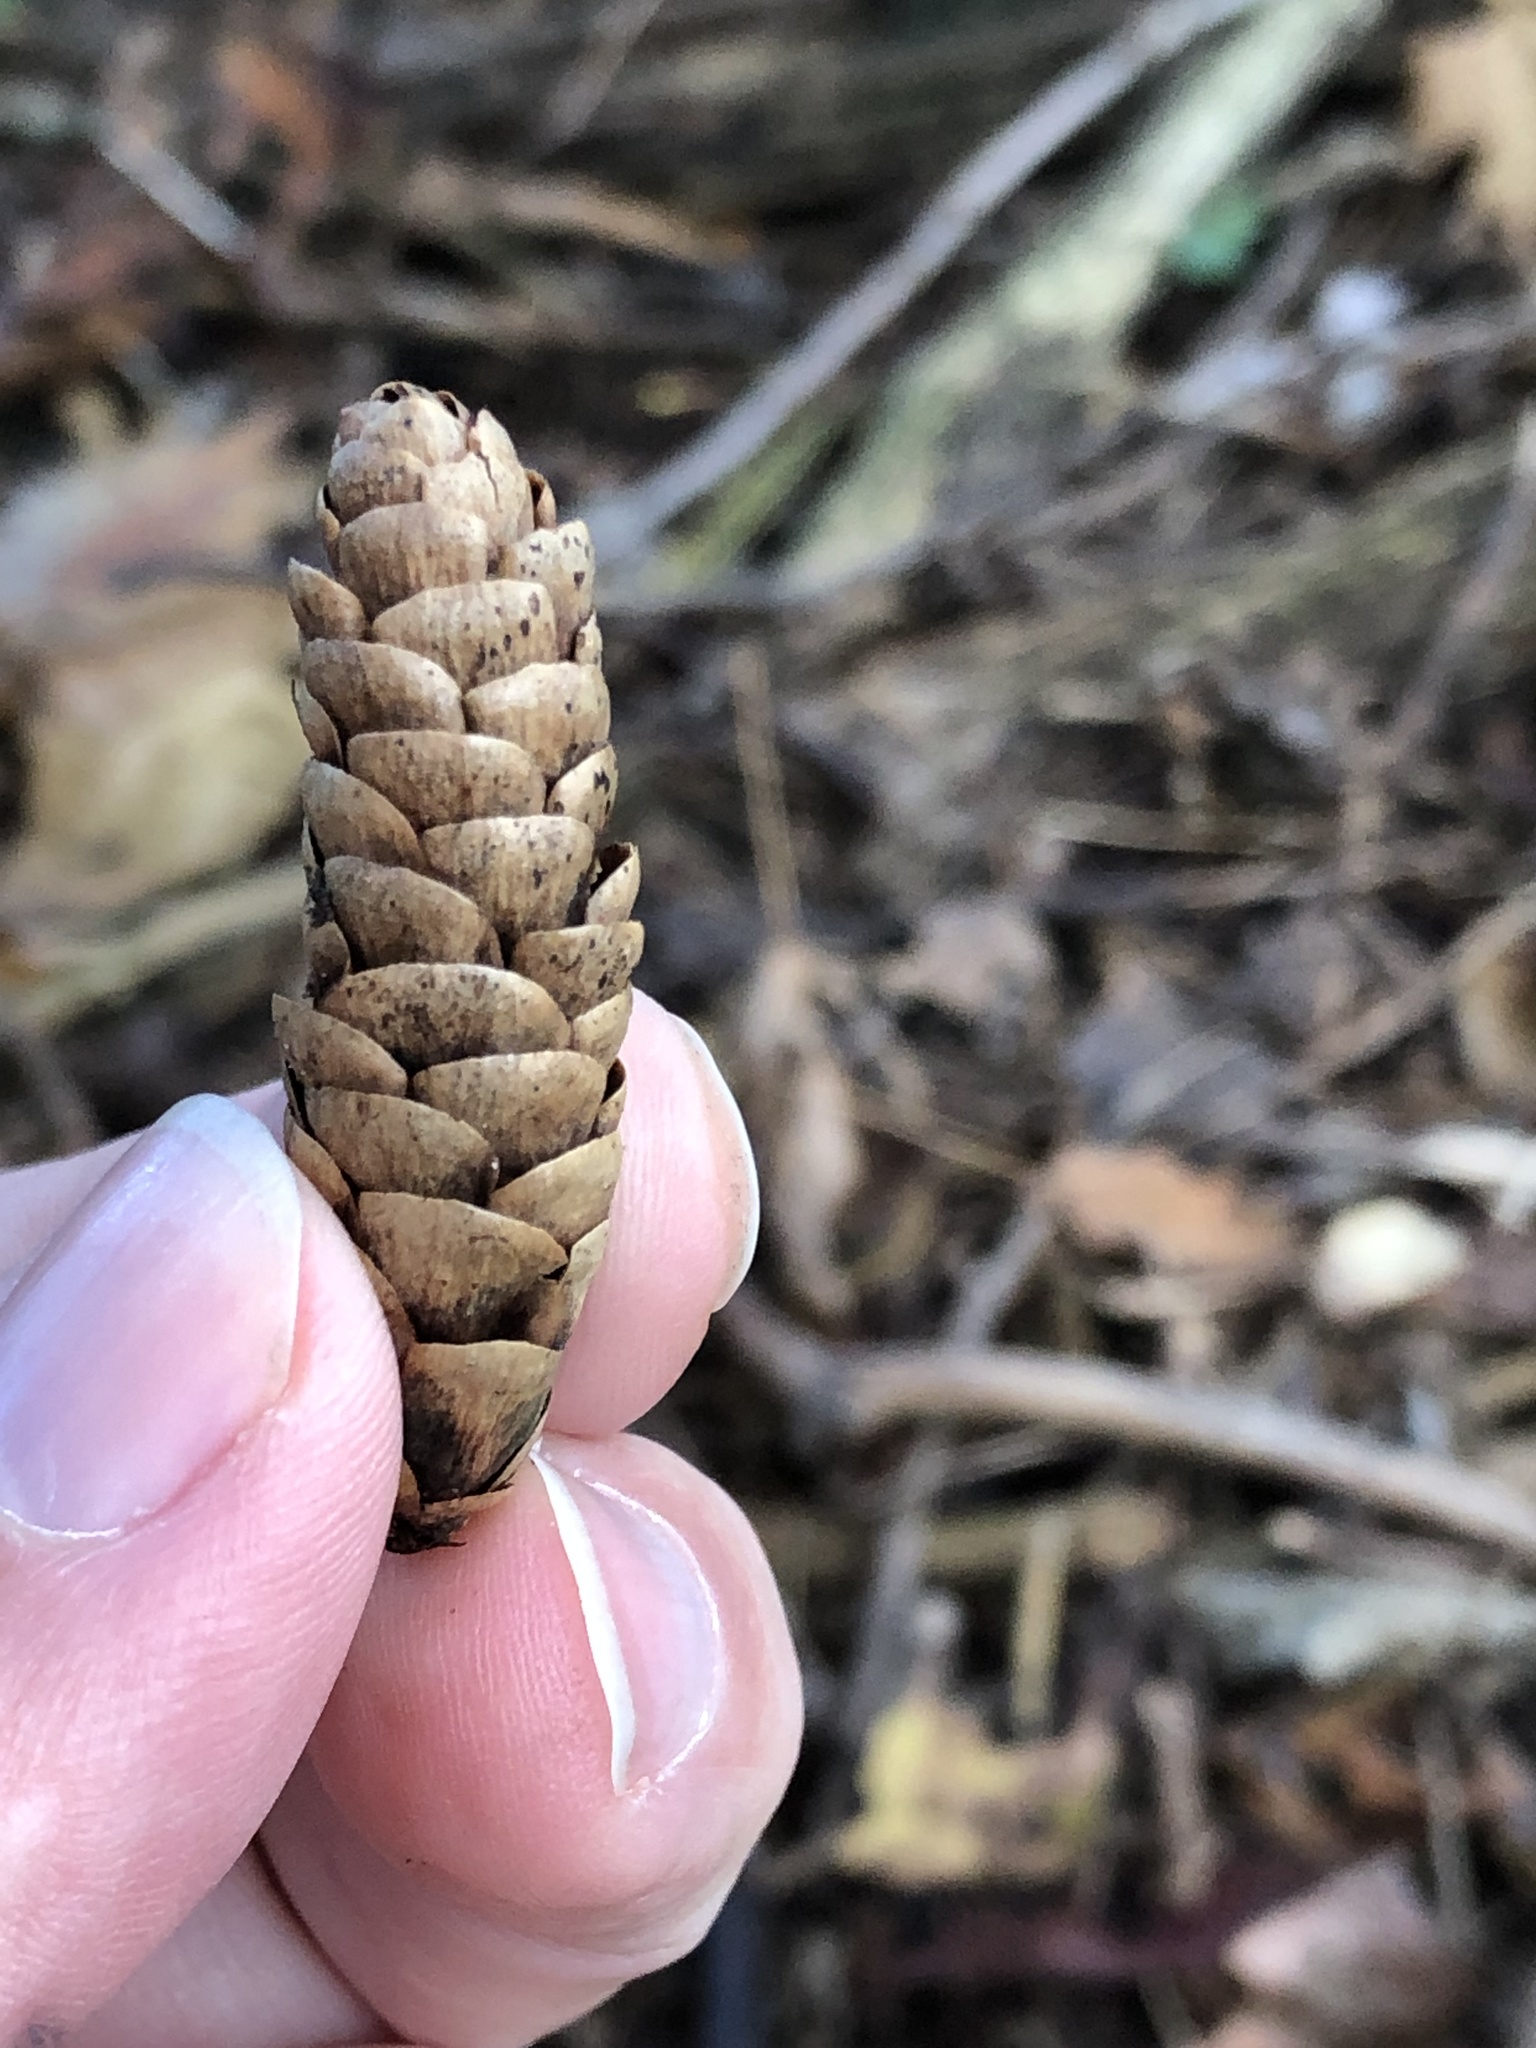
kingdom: Plantae
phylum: Tracheophyta
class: Pinopsida
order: Pinales
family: Pinaceae
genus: Picea
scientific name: Picea glauca
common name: White spruce
